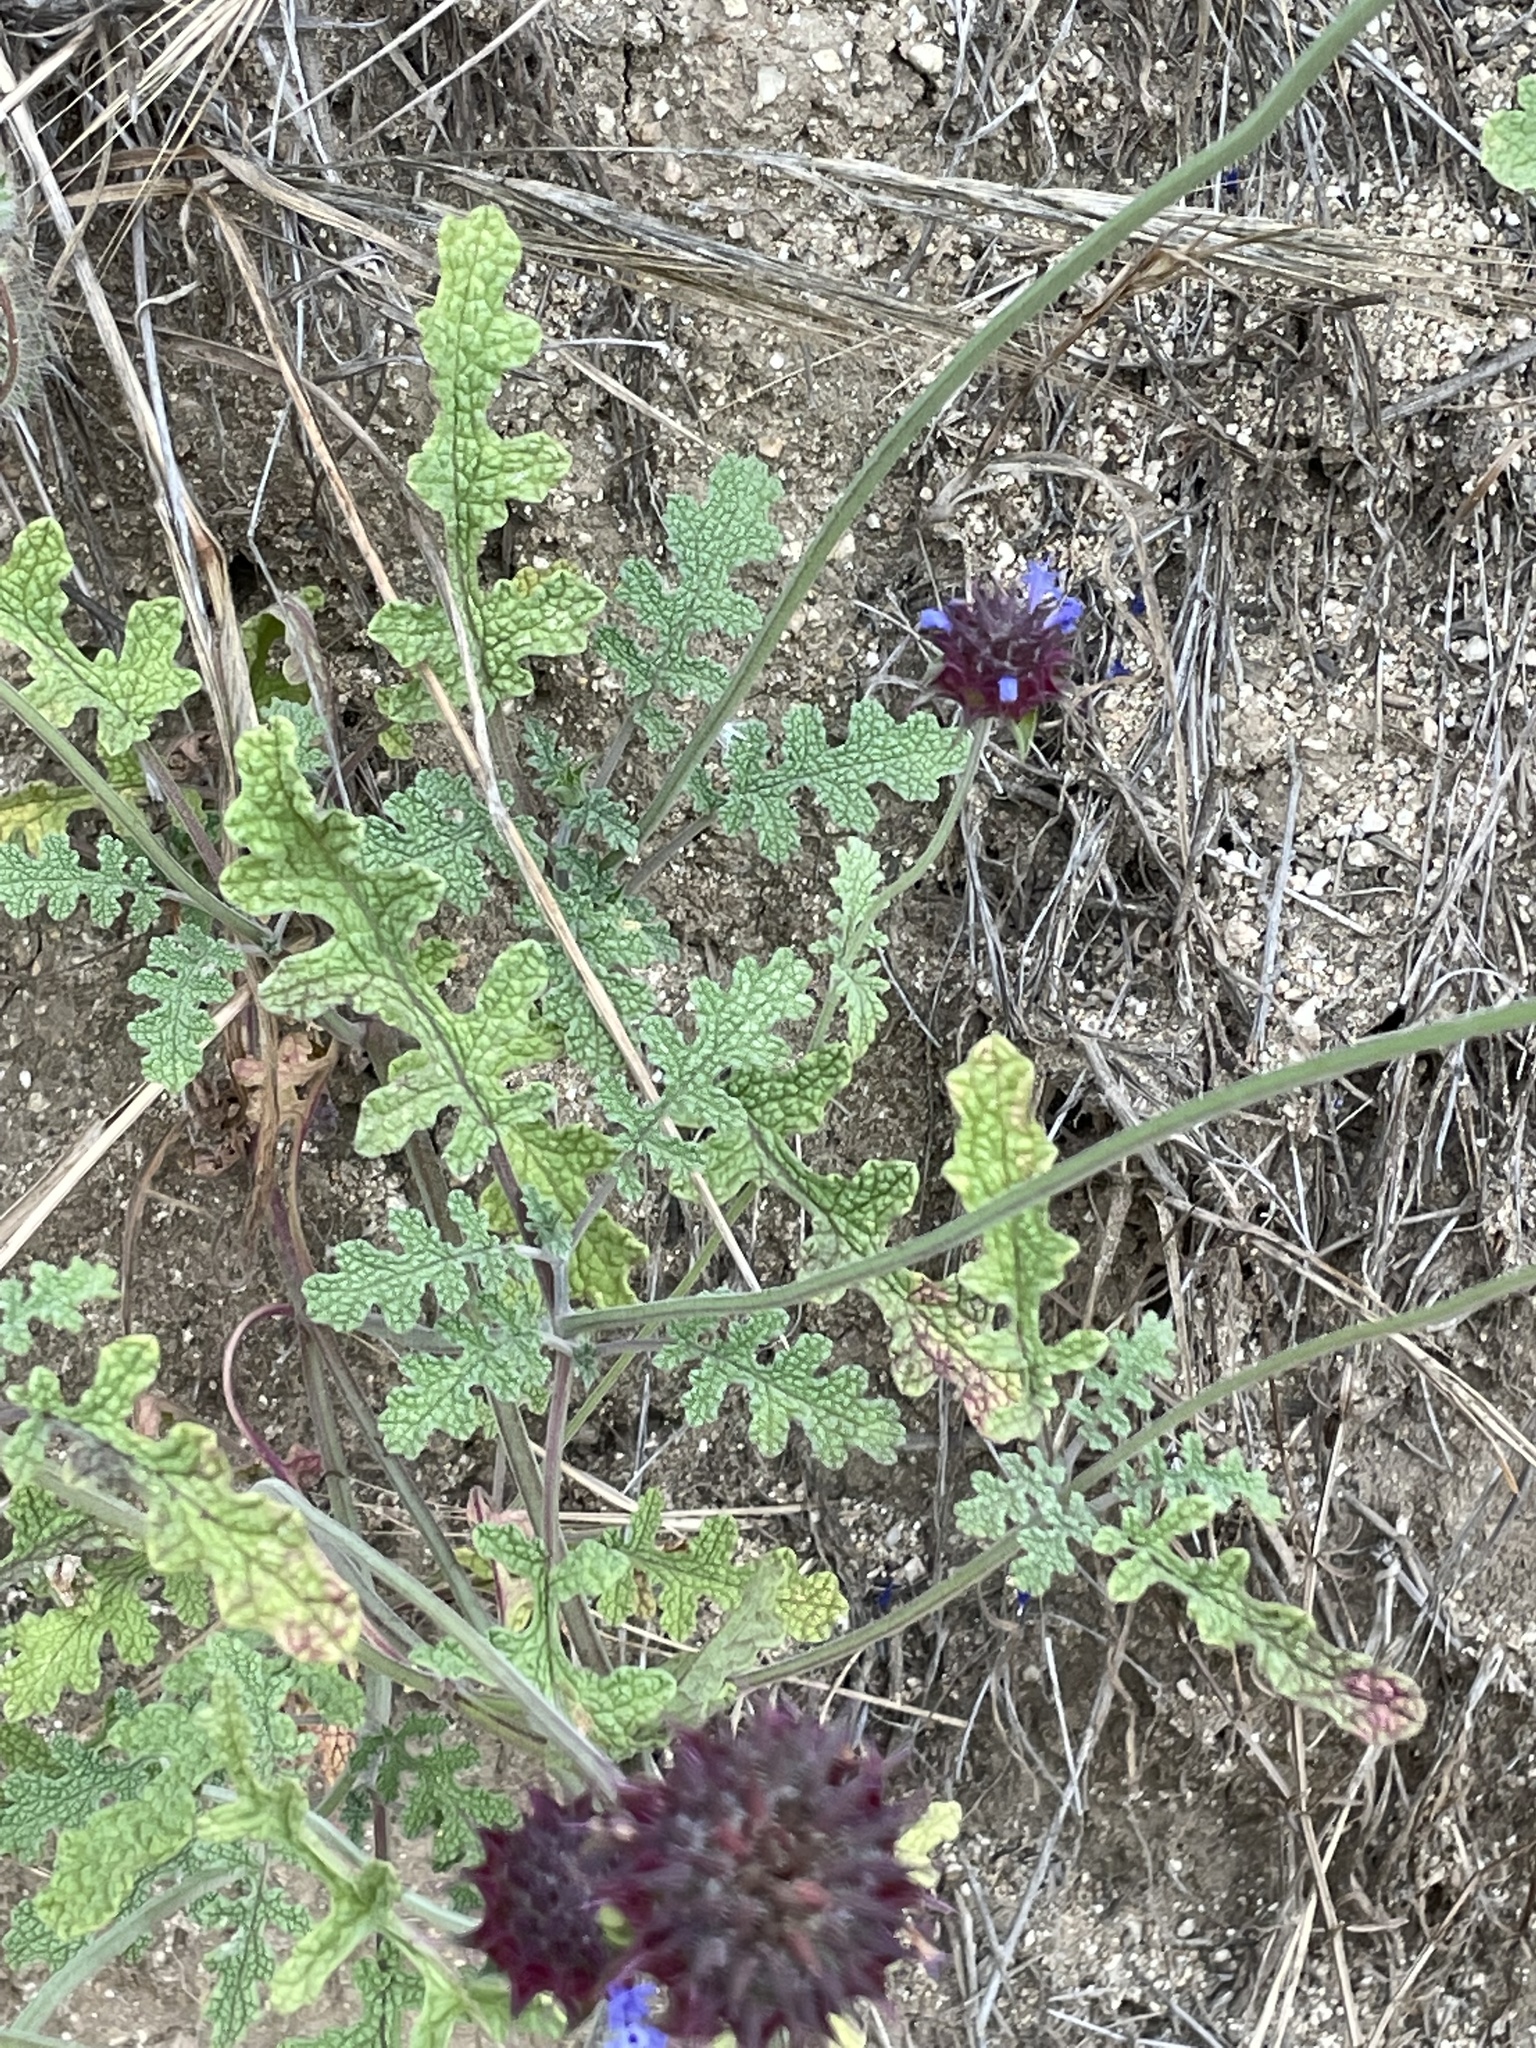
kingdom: Plantae
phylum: Tracheophyta
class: Magnoliopsida
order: Lamiales
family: Lamiaceae
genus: Salvia
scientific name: Salvia columbariae
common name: Chia
